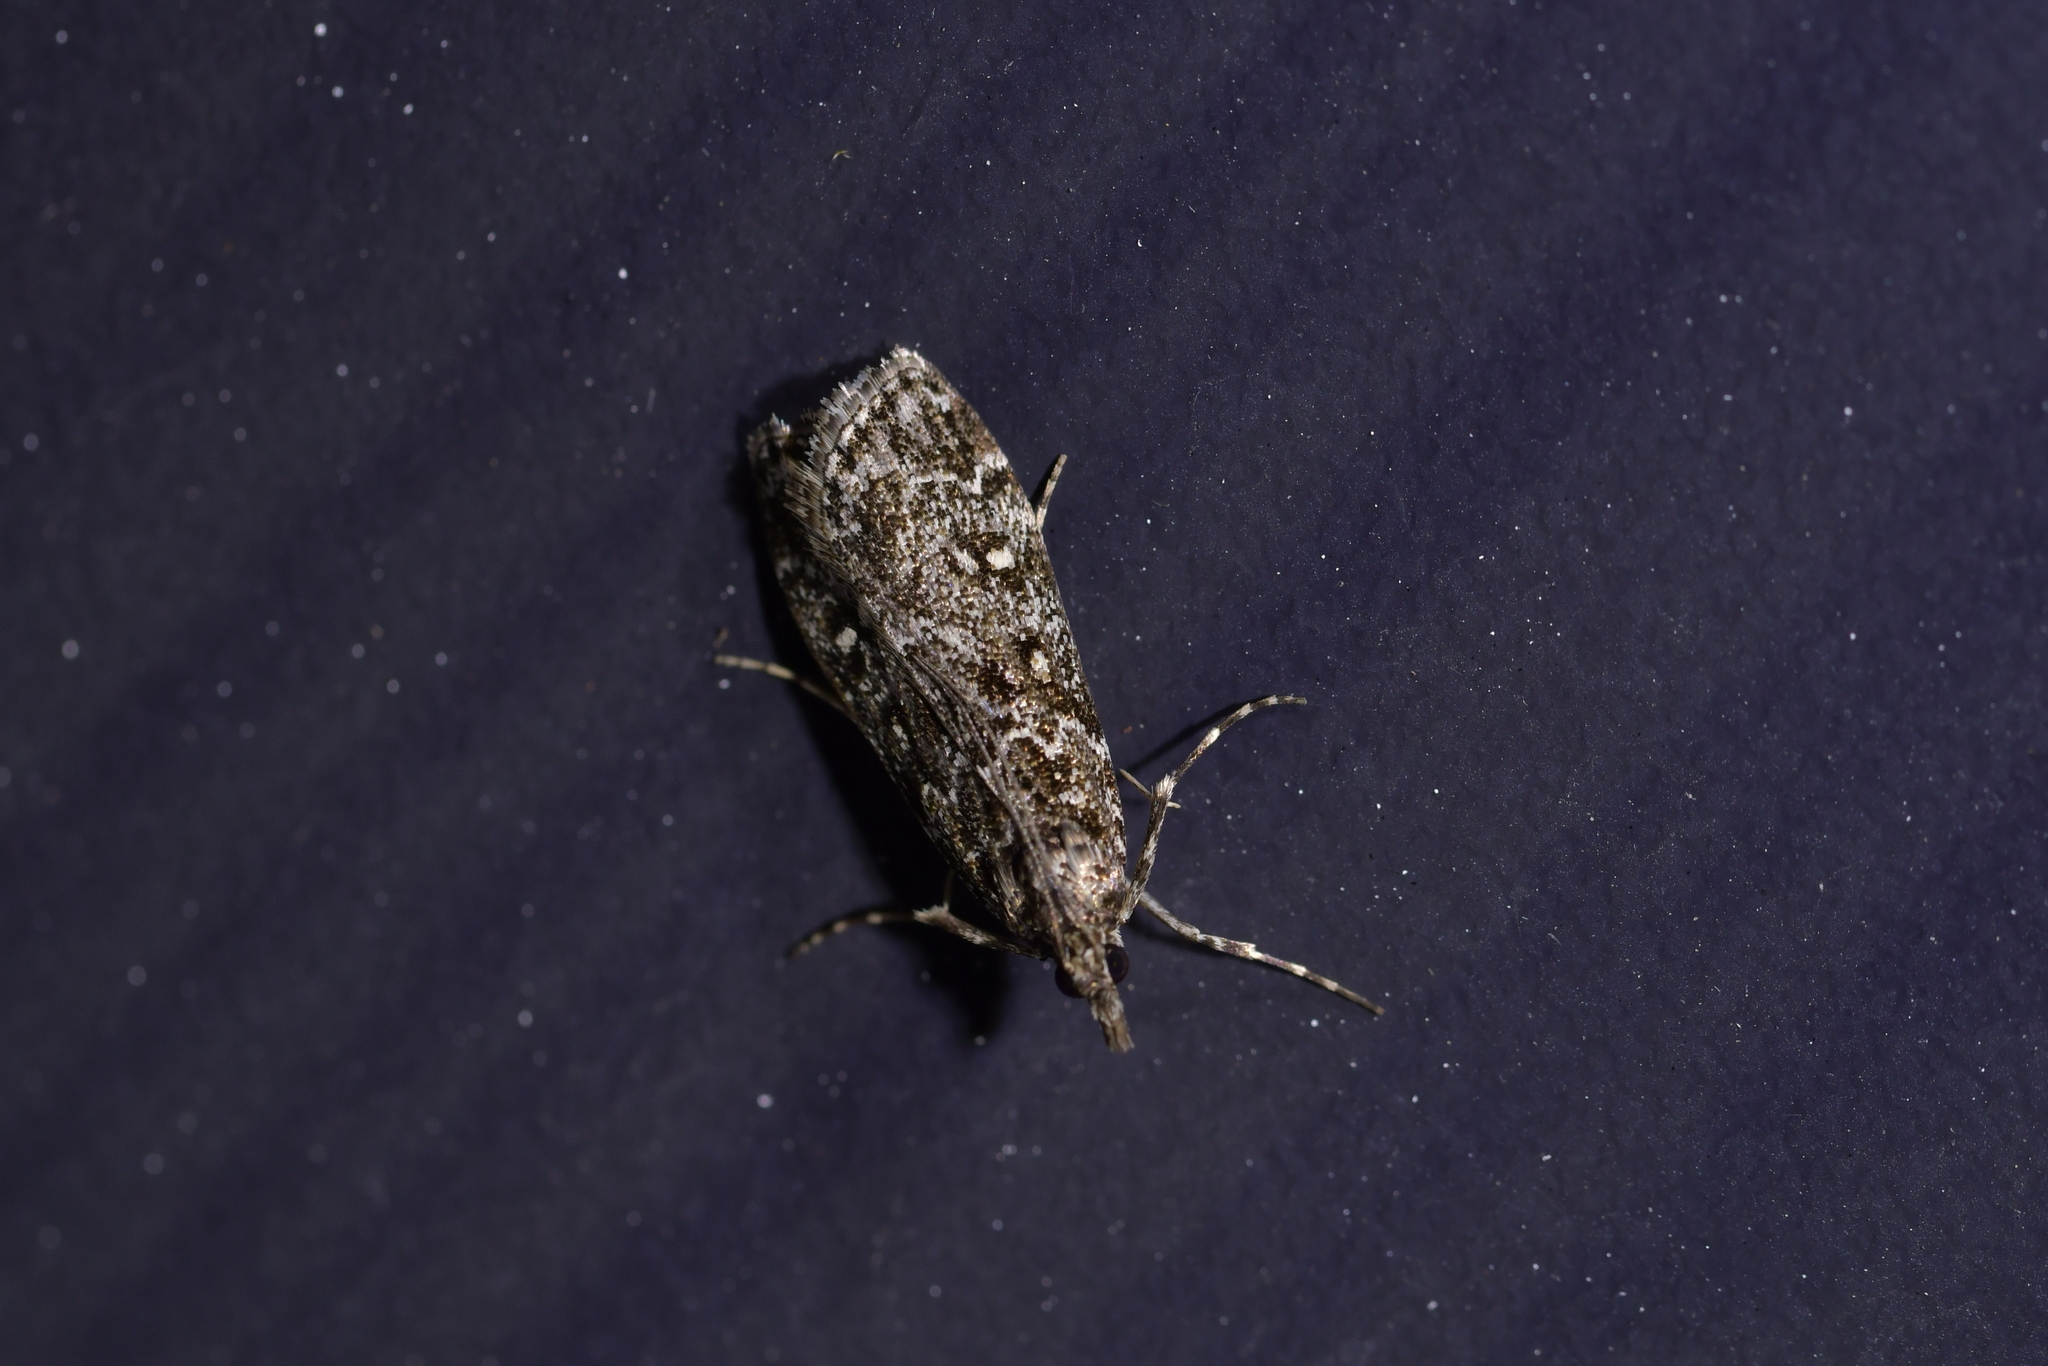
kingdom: Animalia
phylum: Arthropoda
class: Insecta
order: Lepidoptera
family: Crambidae
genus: Eudonia
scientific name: Eudonia philerga
